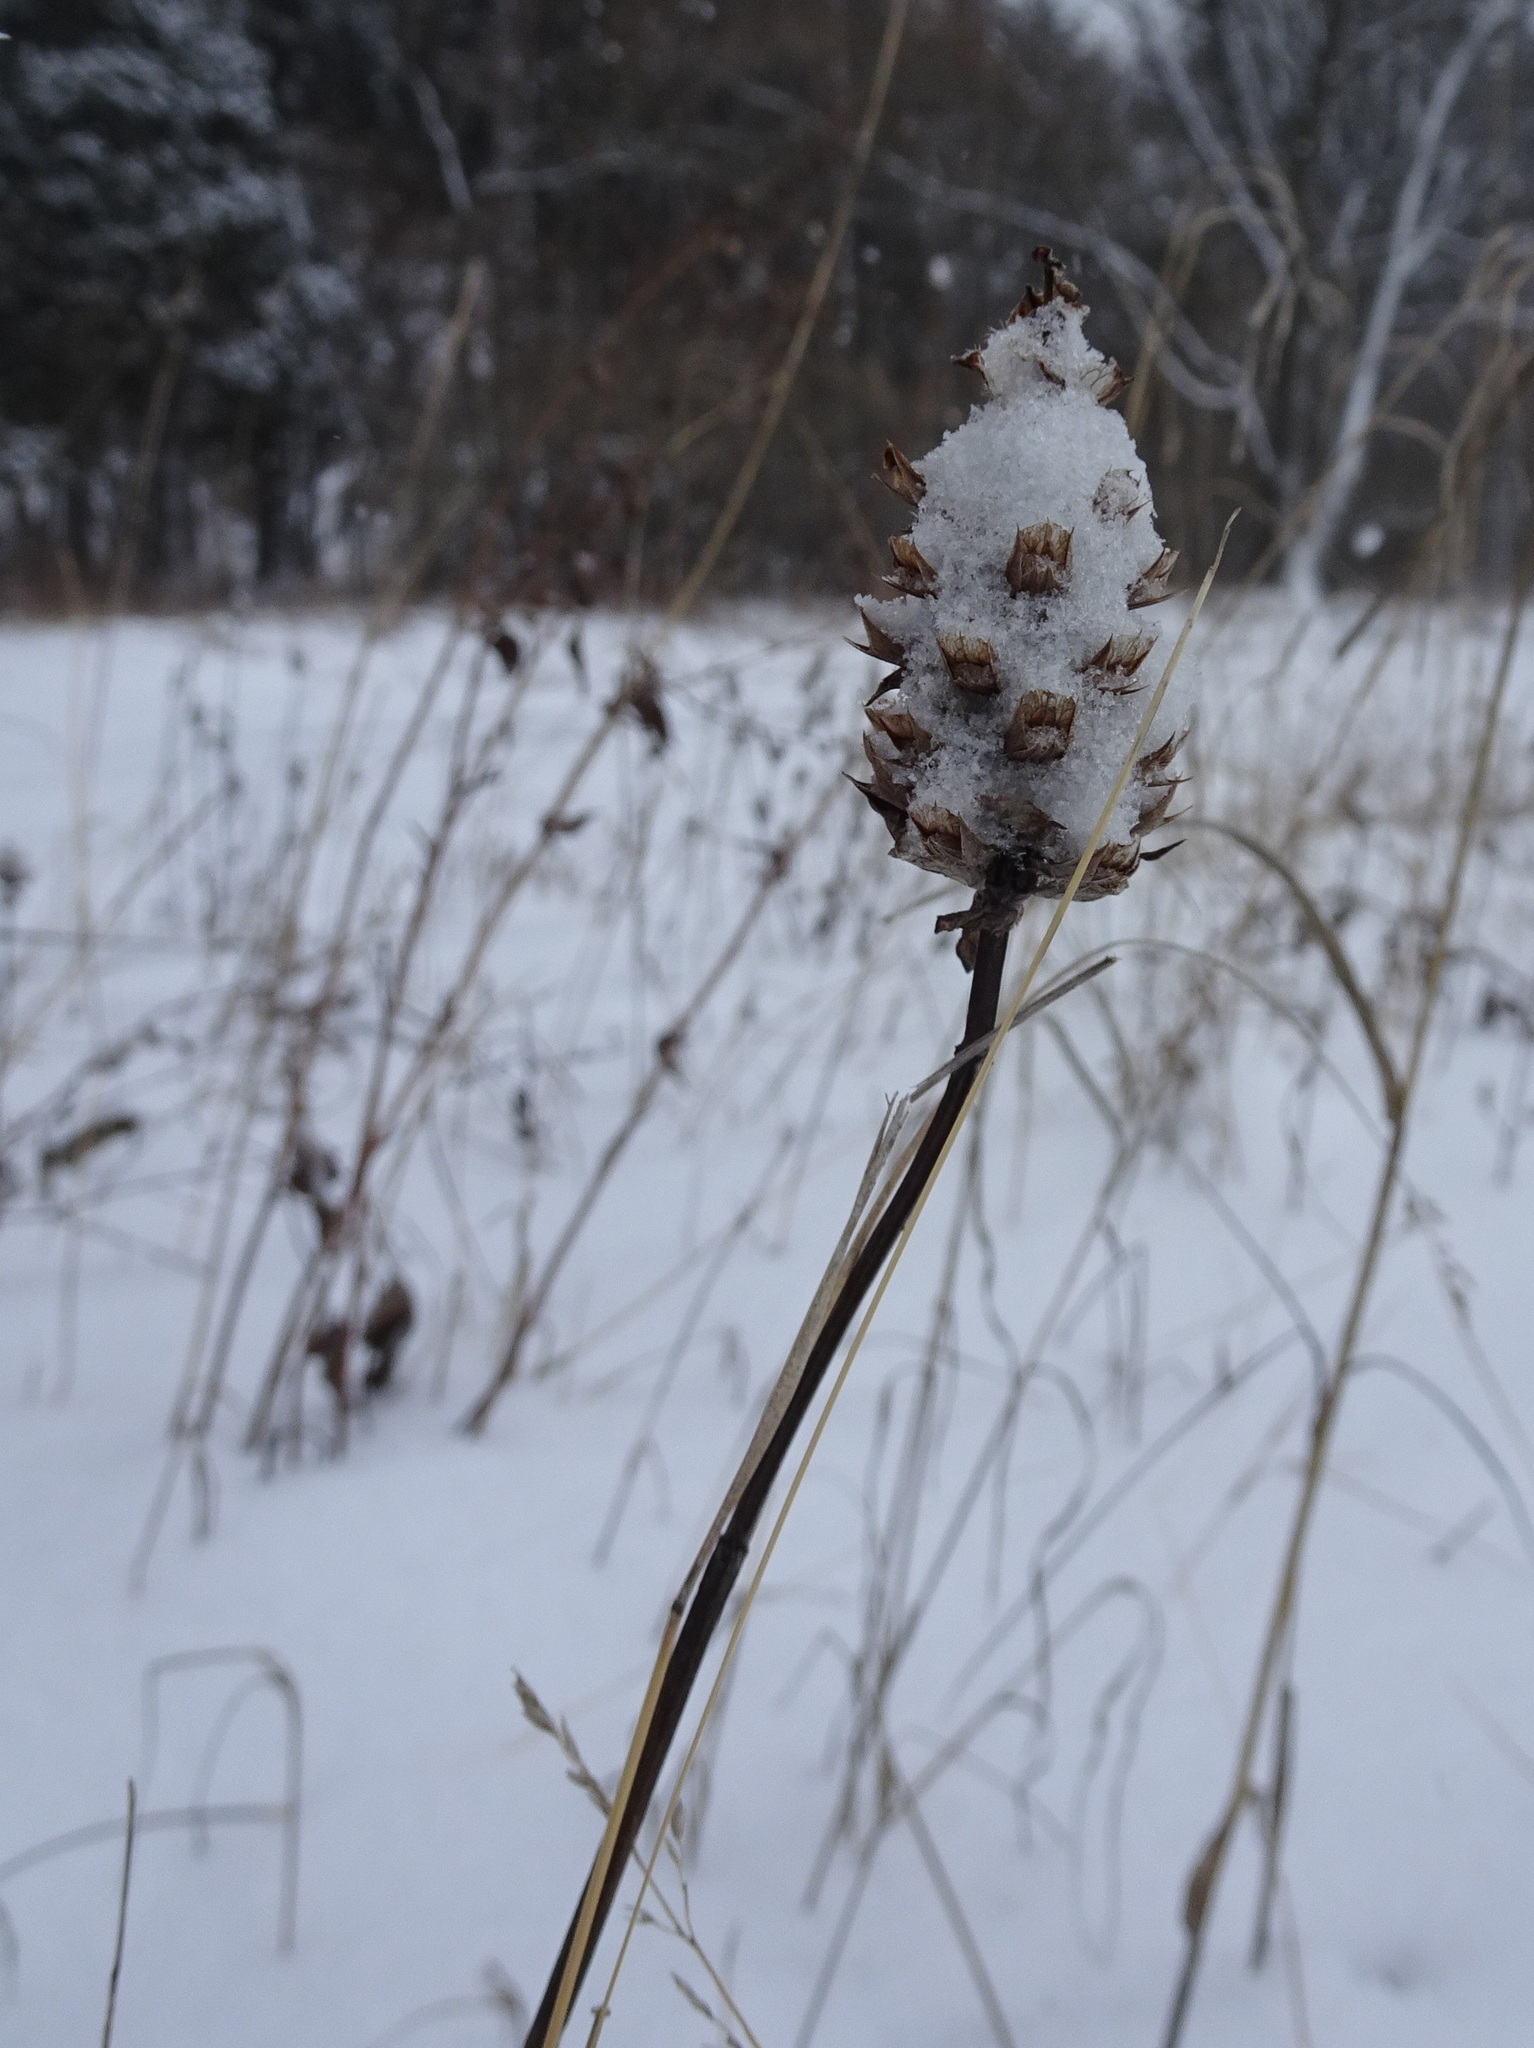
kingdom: Plantae
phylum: Tracheophyta
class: Magnoliopsida
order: Lamiales
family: Lamiaceae
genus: Prunella
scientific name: Prunella vulgaris
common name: Heal-all
